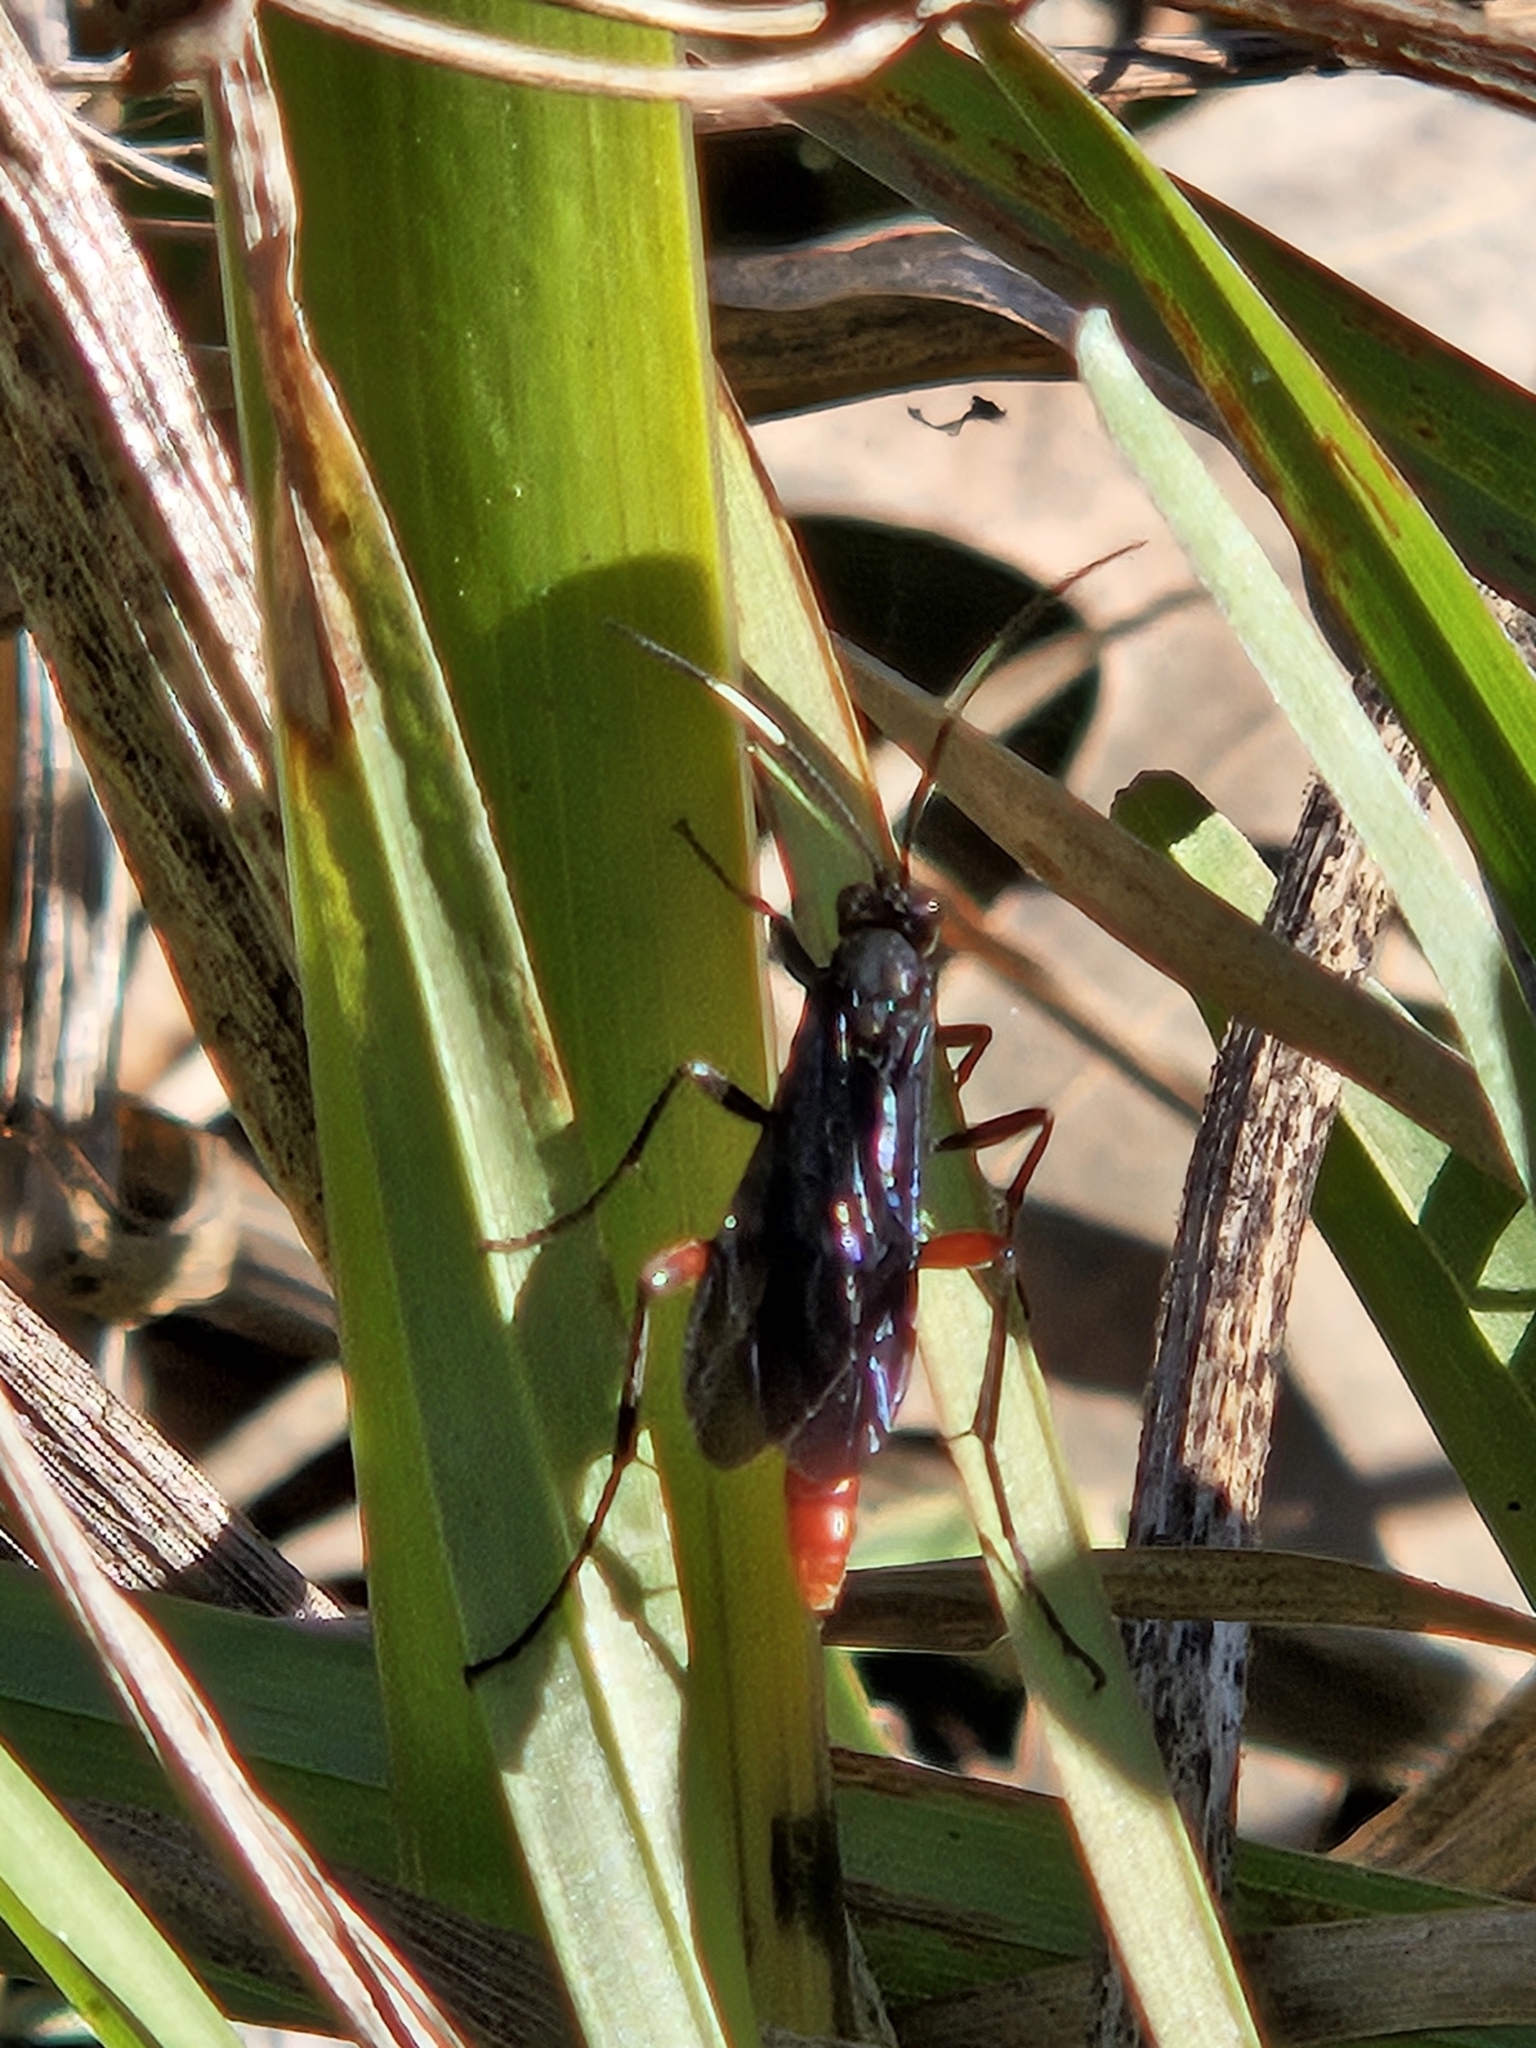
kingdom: Animalia
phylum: Arthropoda
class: Insecta
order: Hymenoptera
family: Ichneumonidae
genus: Limonethe
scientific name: Limonethe maurator
